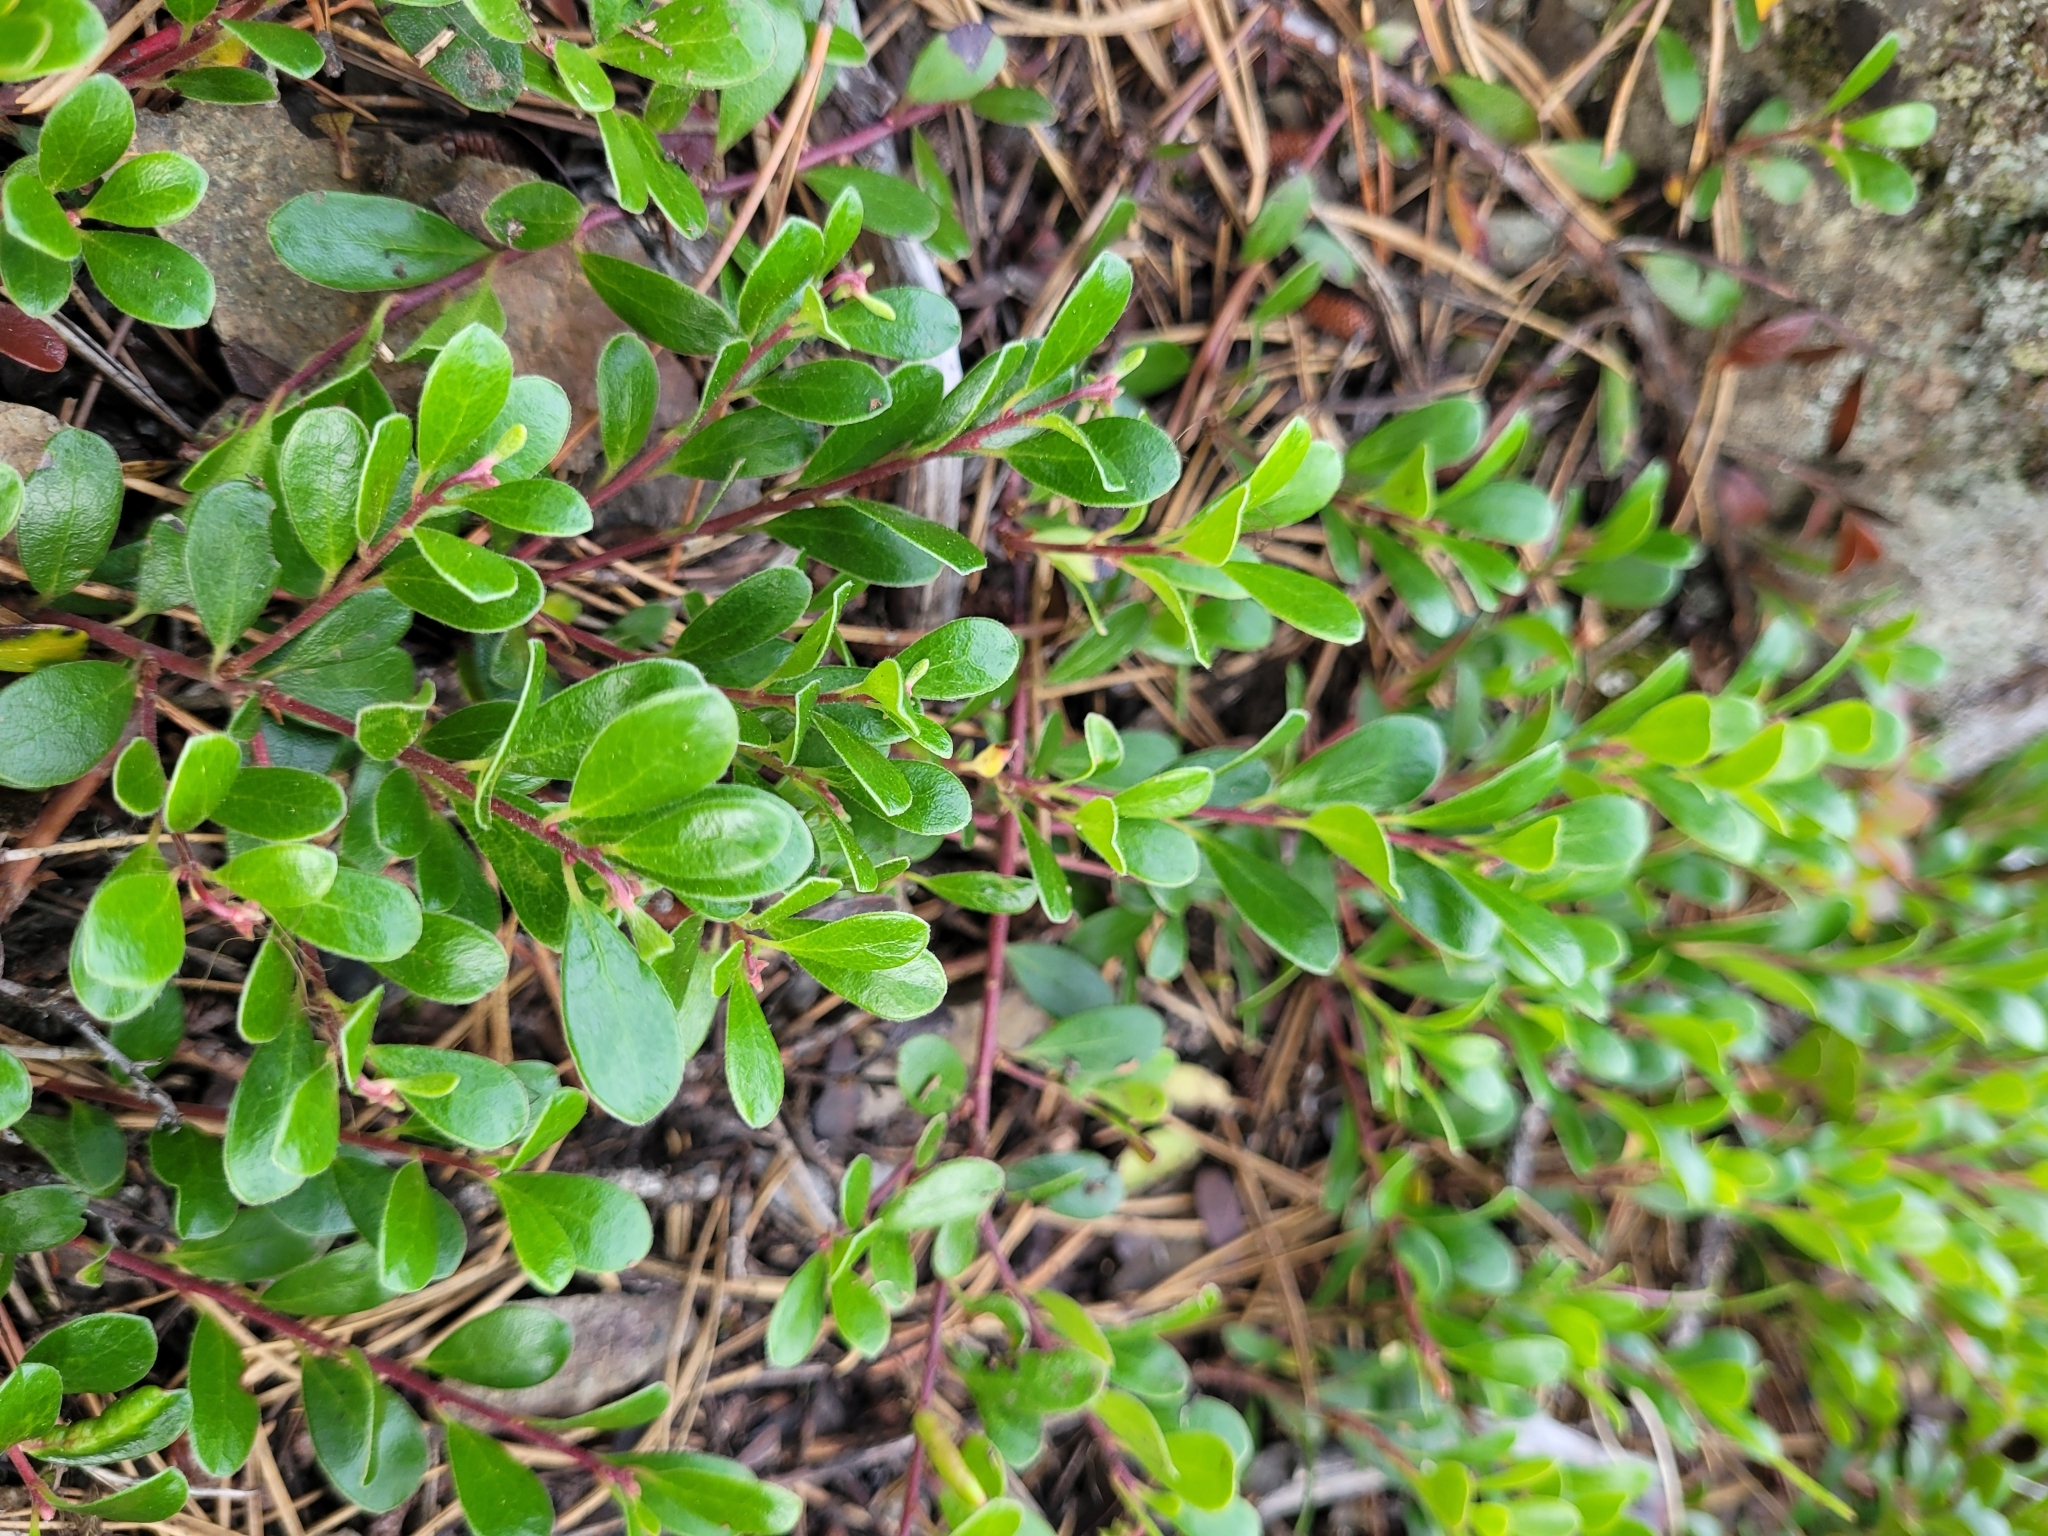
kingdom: Plantae
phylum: Tracheophyta
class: Magnoliopsida
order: Ericales
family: Ericaceae
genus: Arctostaphylos
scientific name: Arctostaphylos uva-ursi
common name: Bearberry
